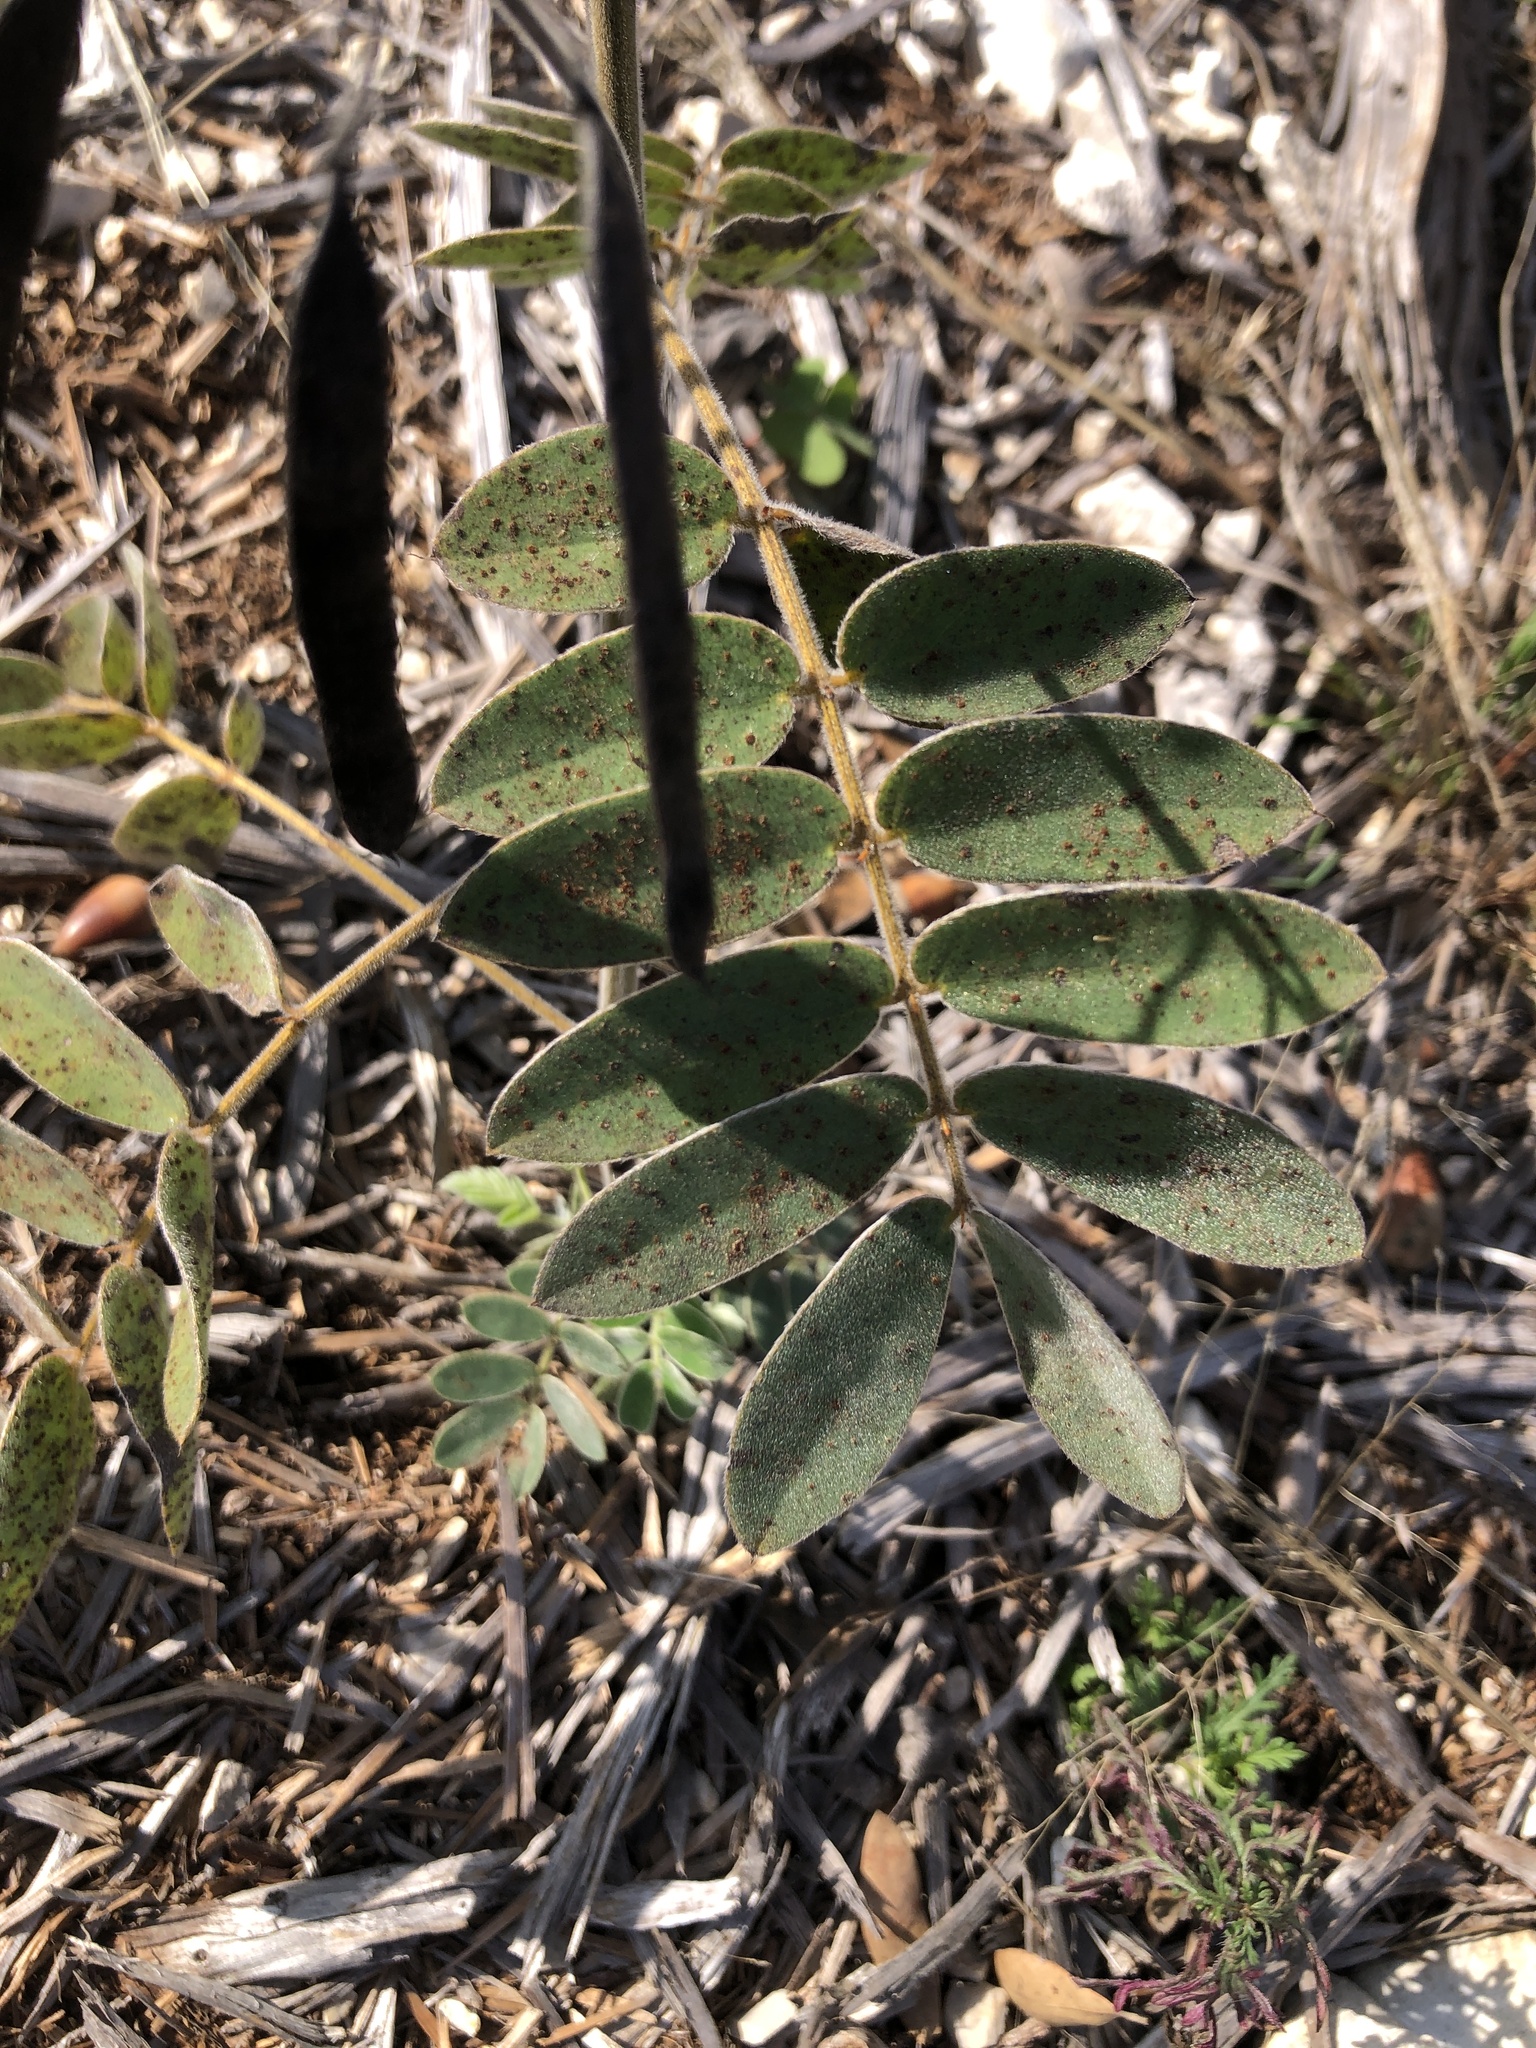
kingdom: Plantae
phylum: Tracheophyta
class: Magnoliopsida
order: Fabales
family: Fabaceae
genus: Senna
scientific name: Senna lindheimeriana
